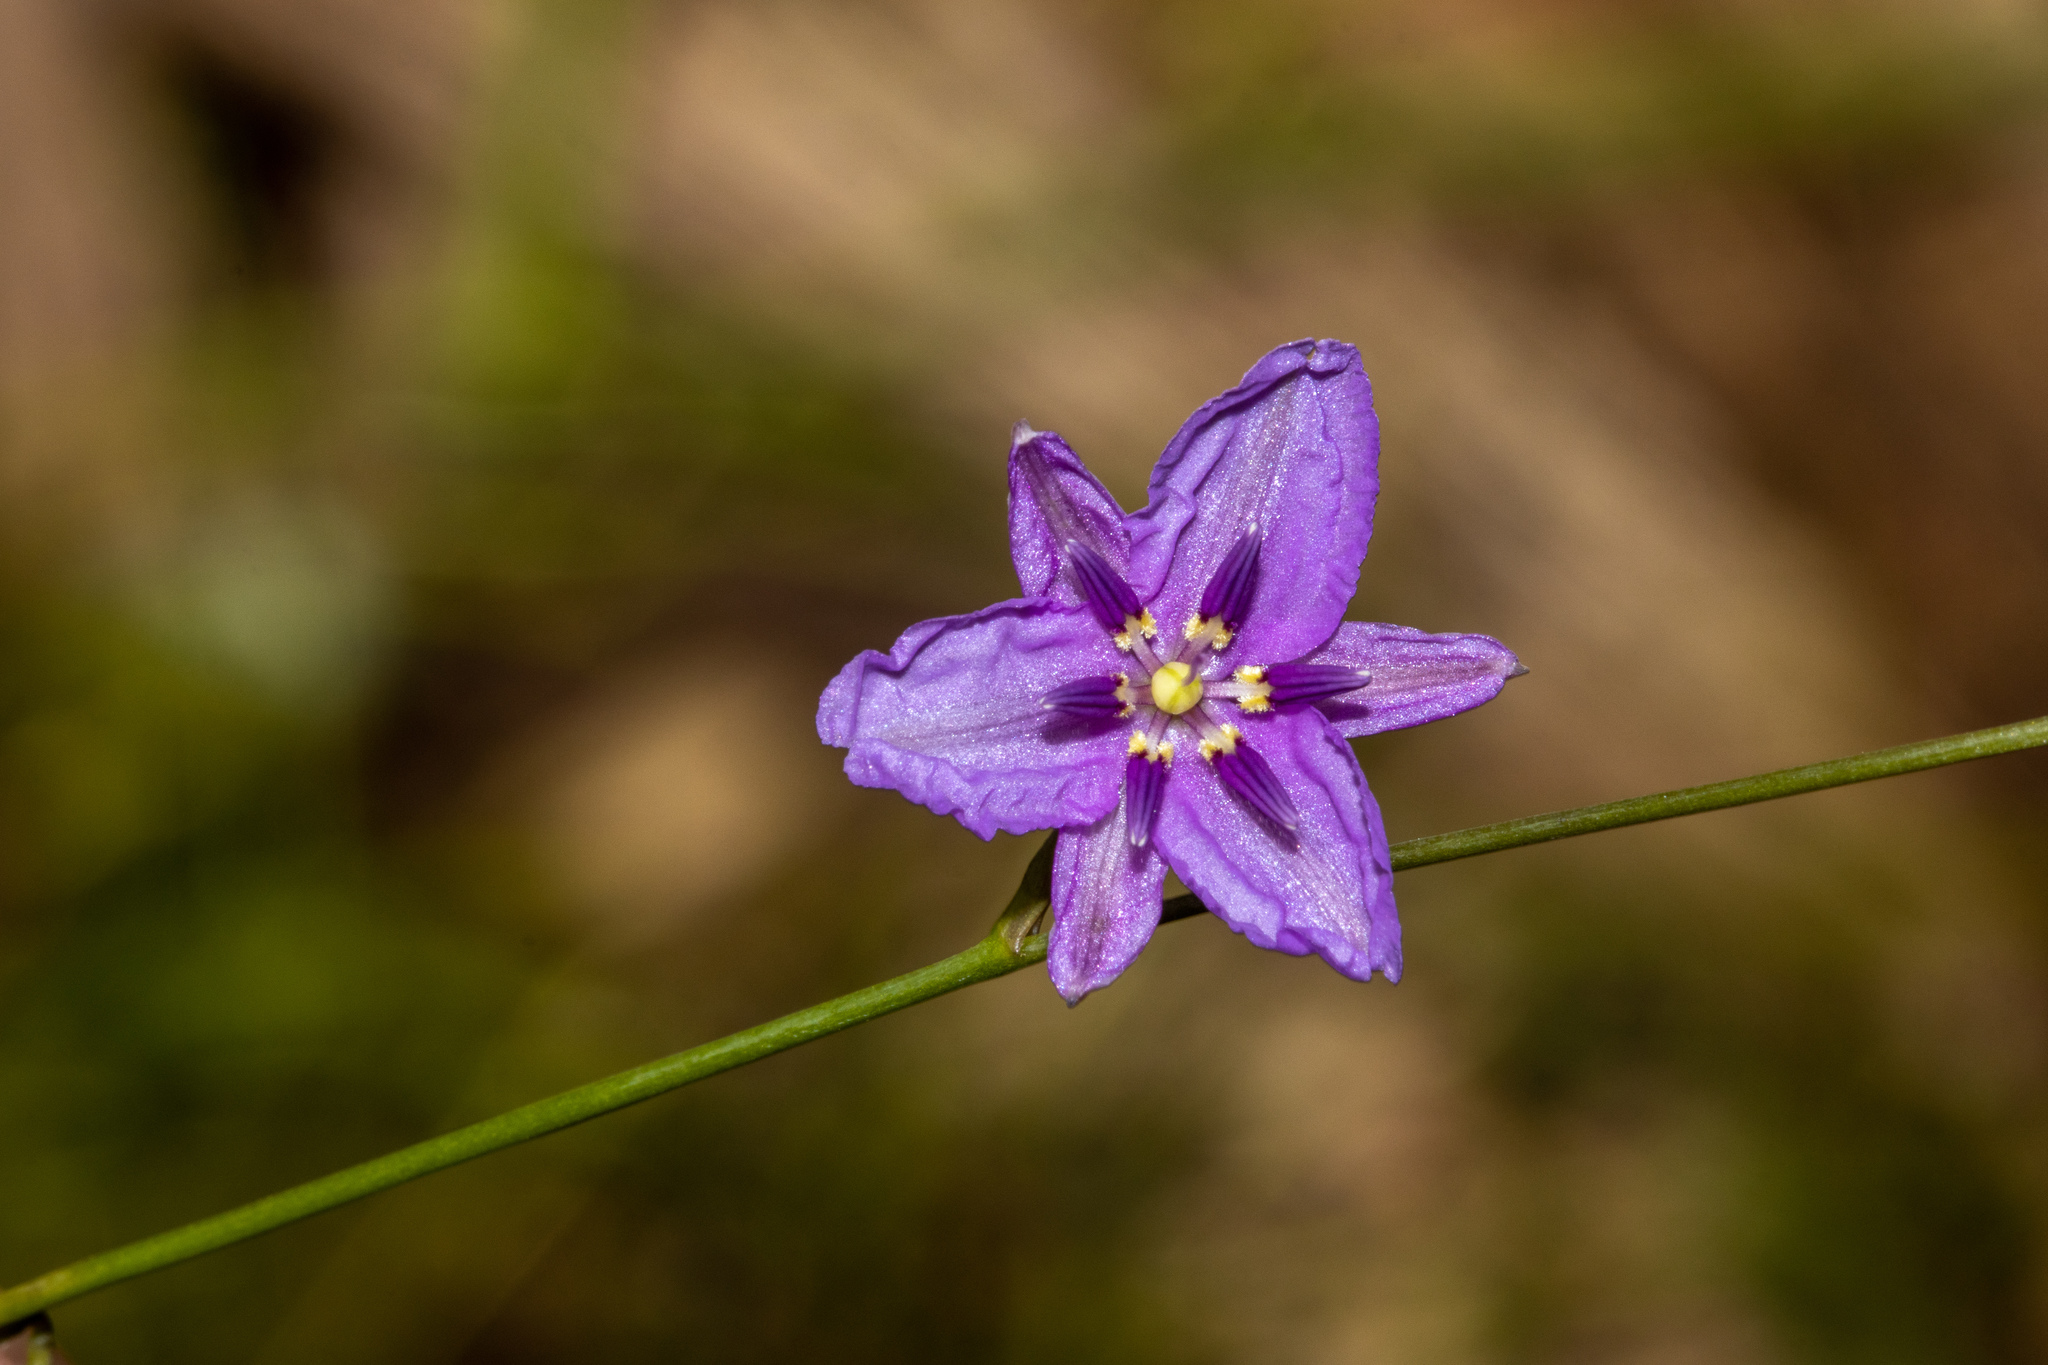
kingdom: Plantae
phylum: Tracheophyta
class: Liliopsida
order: Asparagales
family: Asparagaceae
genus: Arthropodium
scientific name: Arthropodium strictum
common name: Chocolate-lily
